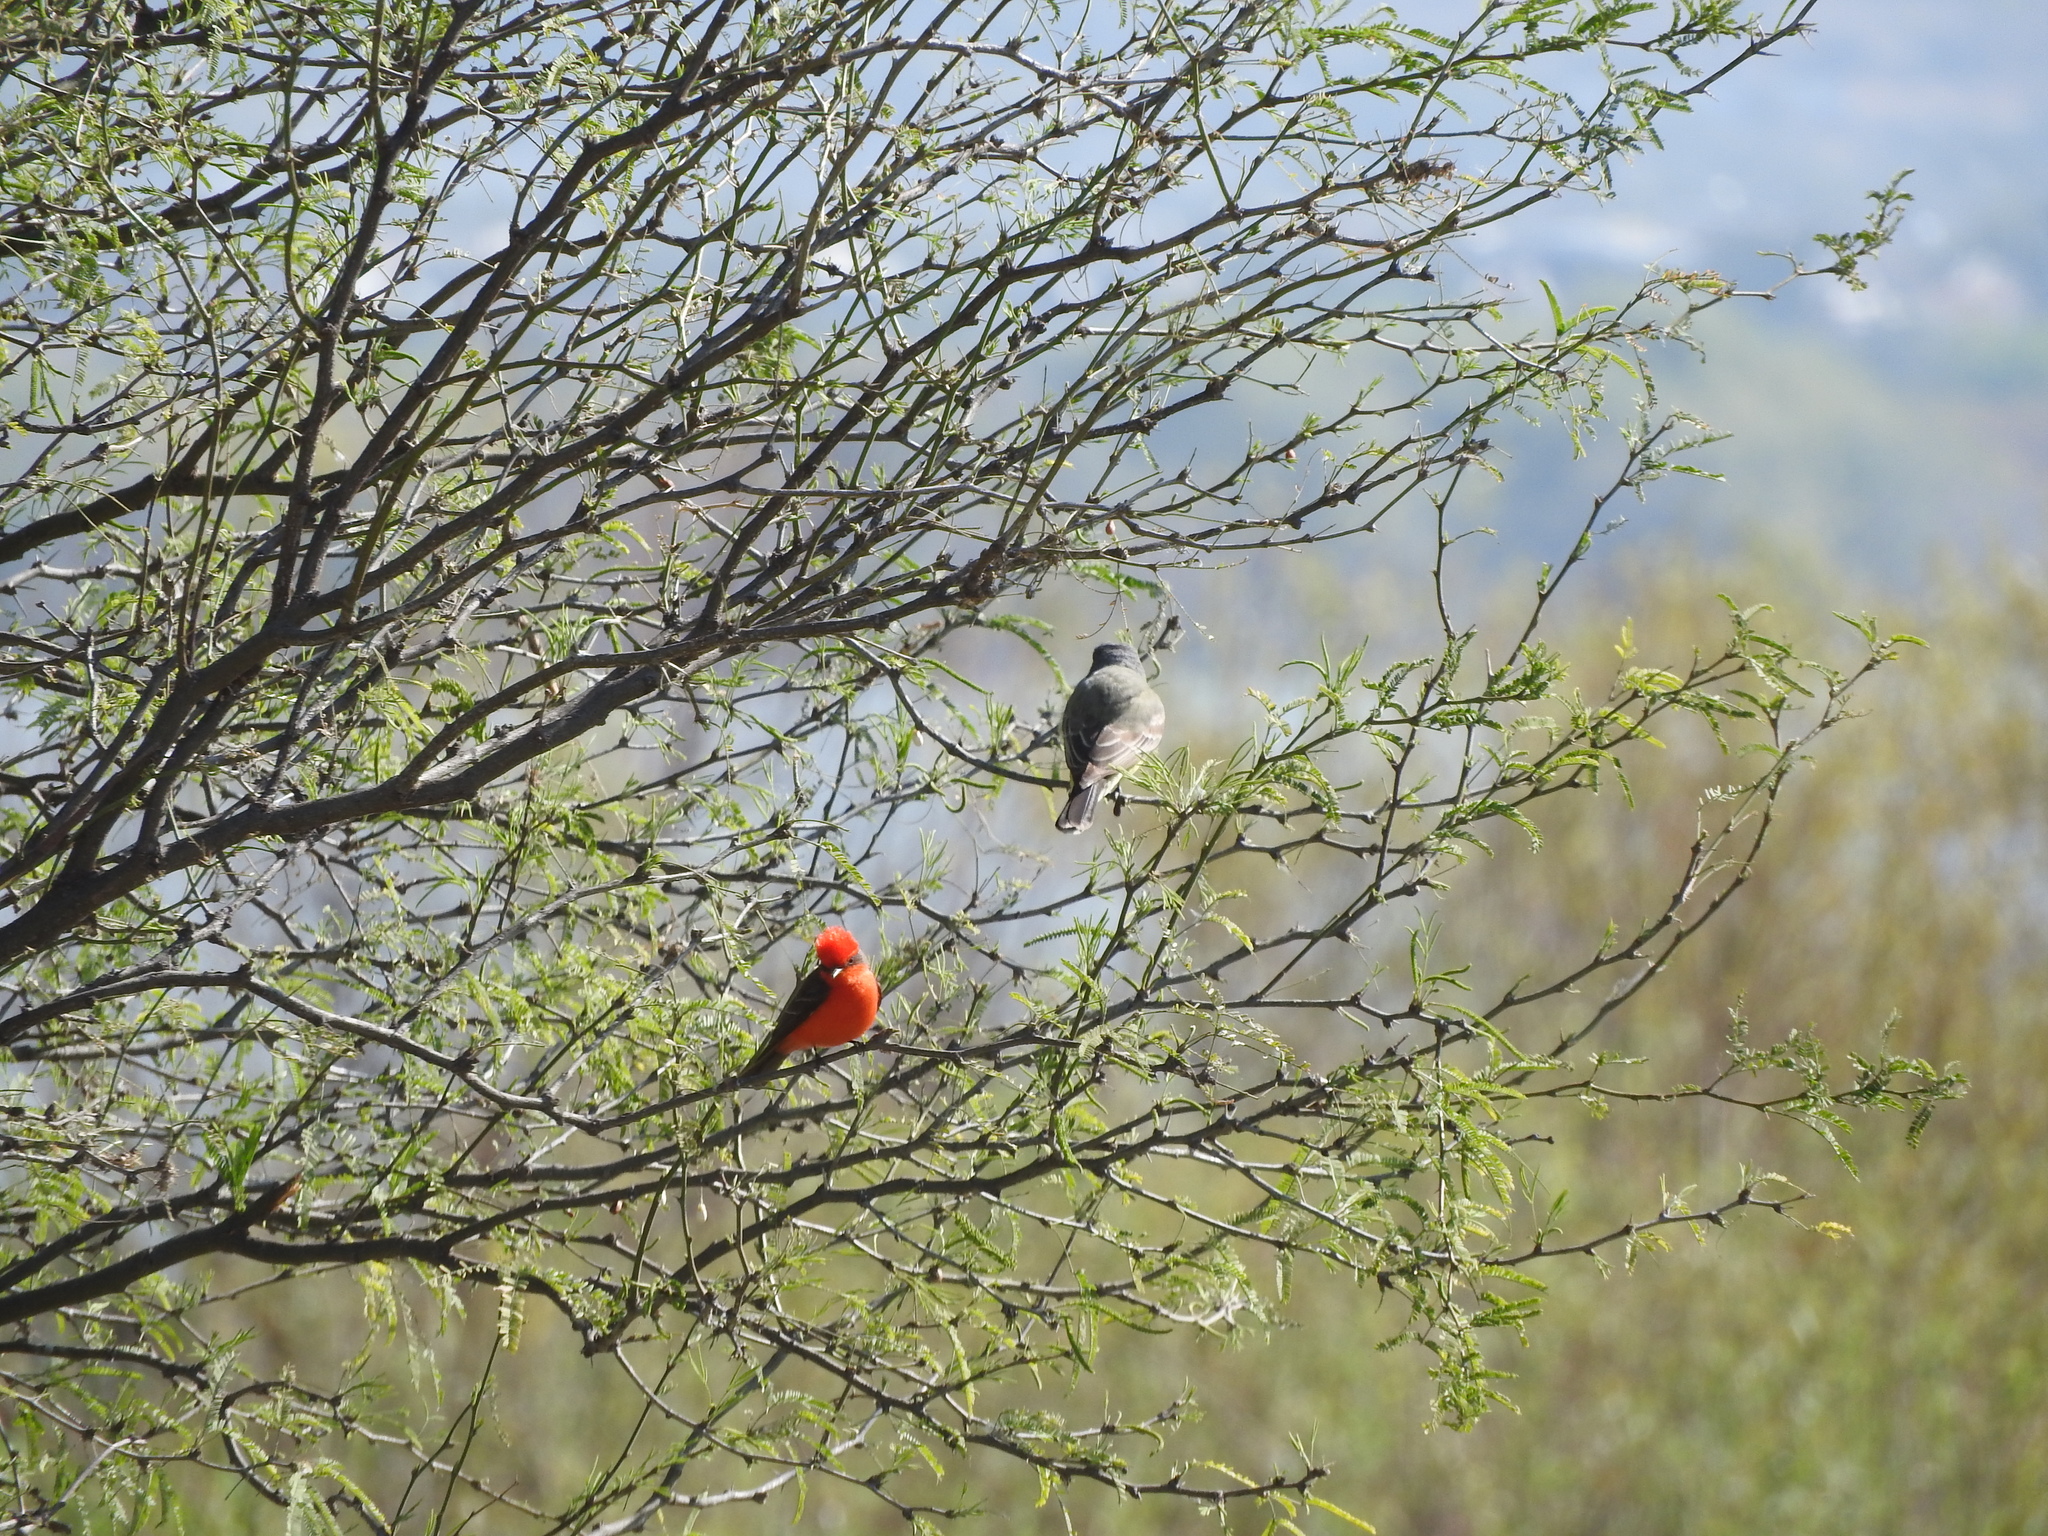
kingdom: Animalia
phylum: Chordata
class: Aves
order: Passeriformes
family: Tyrannidae
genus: Pyrocephalus
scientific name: Pyrocephalus rubinus
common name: Vermilion flycatcher
